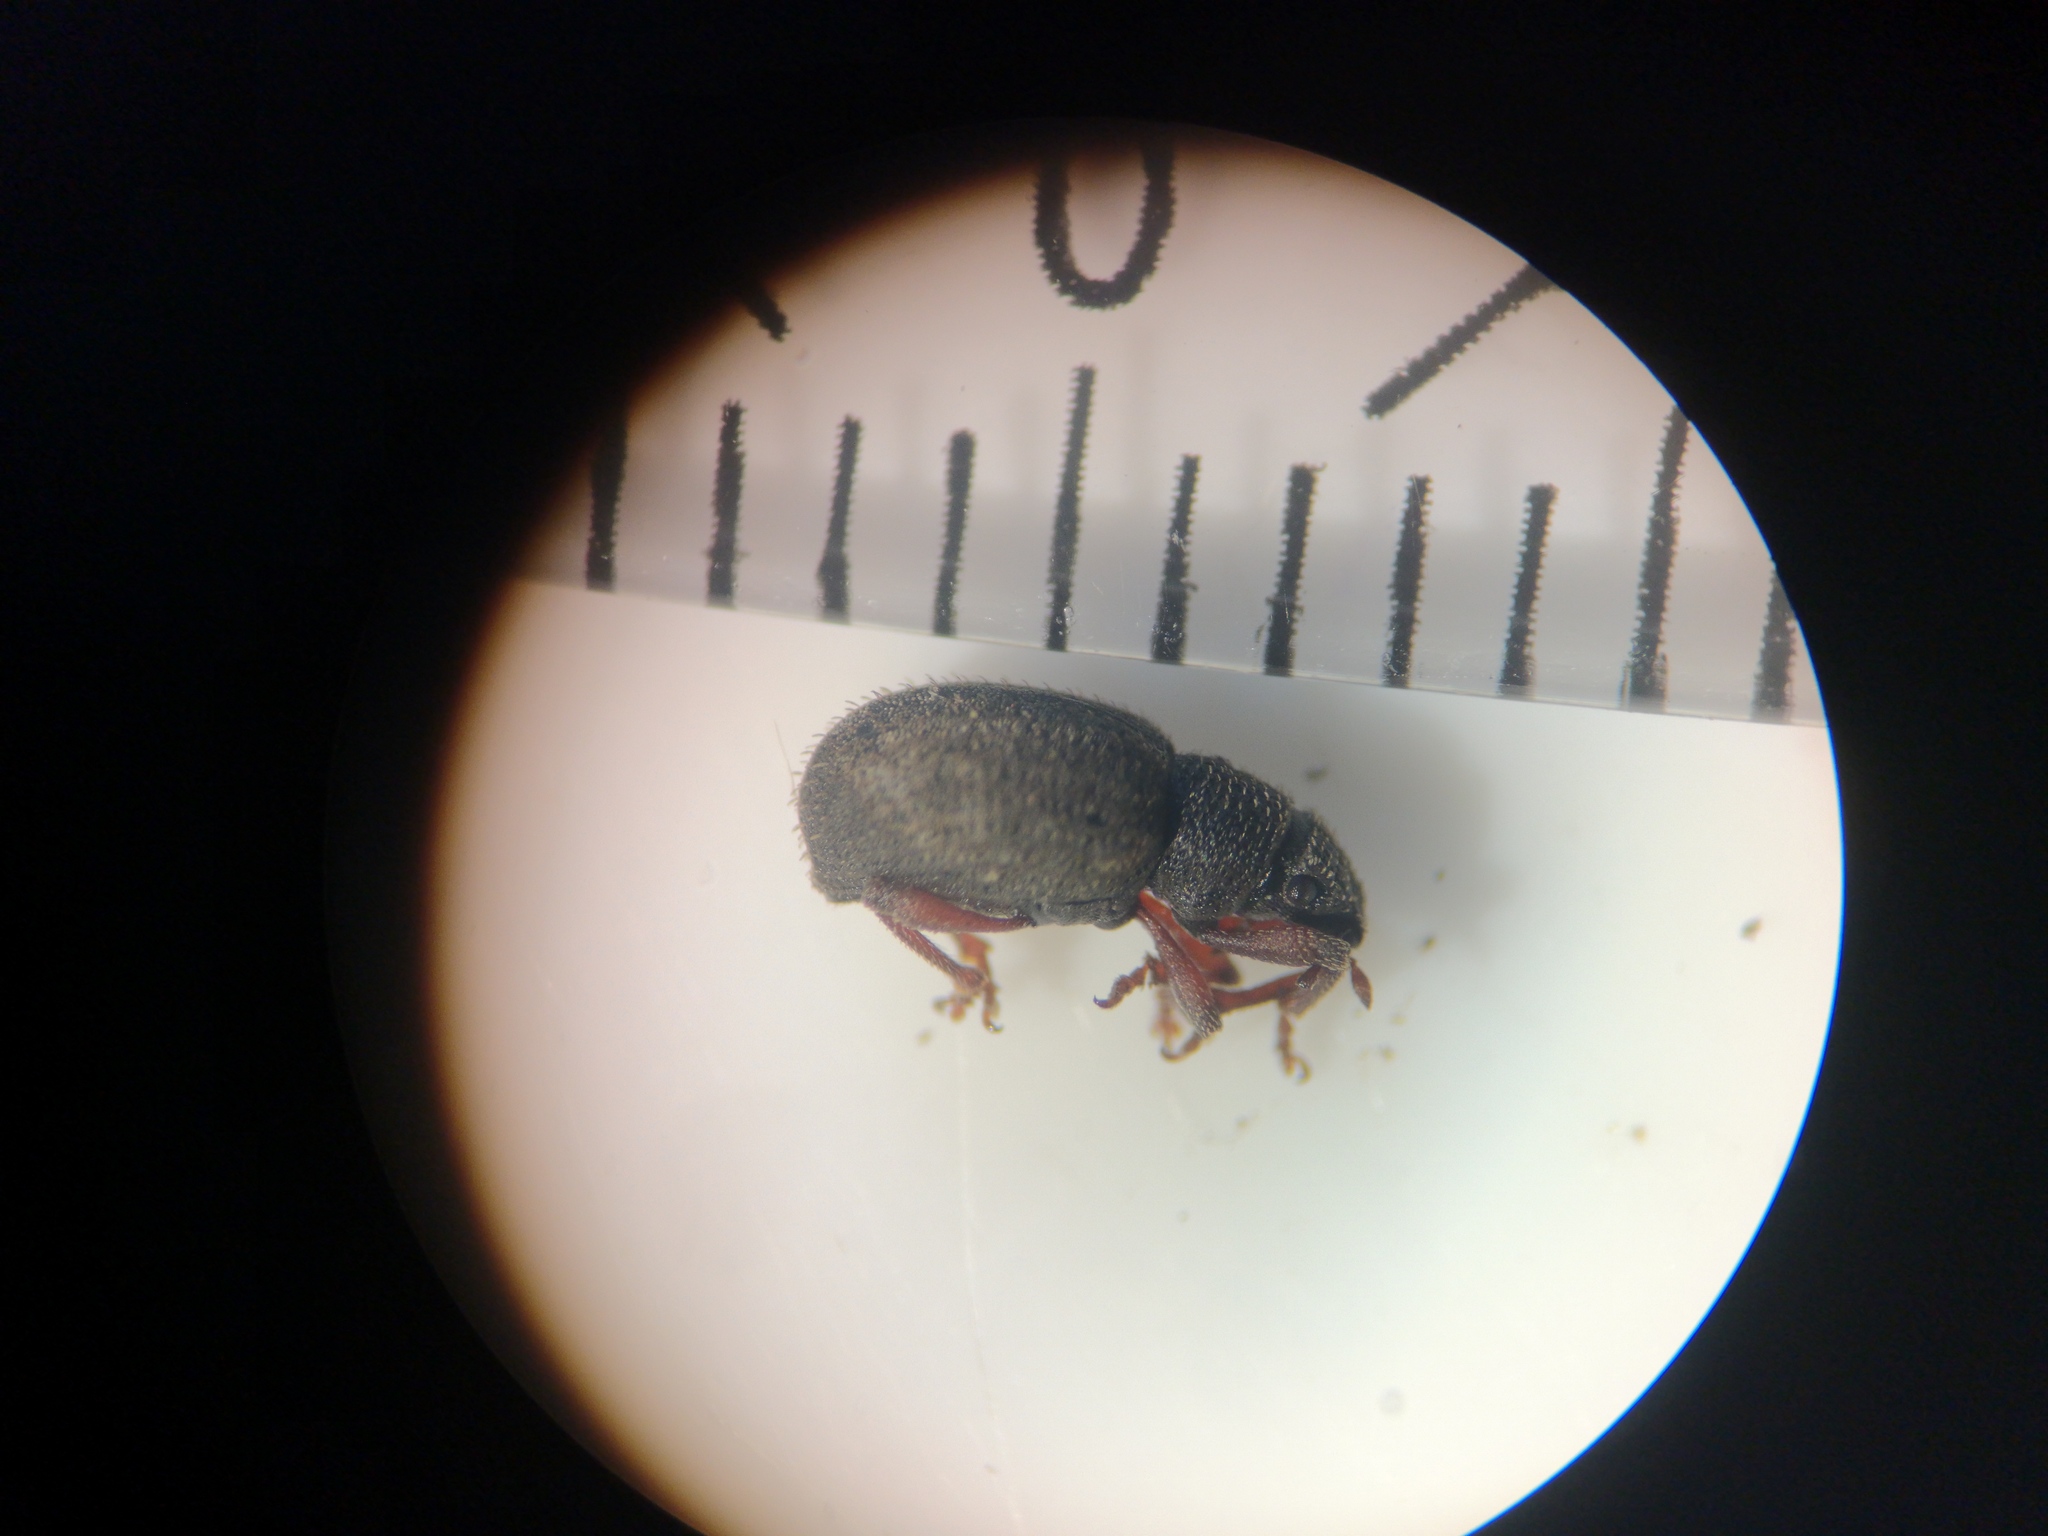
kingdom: Animalia
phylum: Arthropoda
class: Insecta
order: Coleoptera
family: Curculionidae
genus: Strophosoma
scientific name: Strophosoma melanogrammum
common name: Weevil
